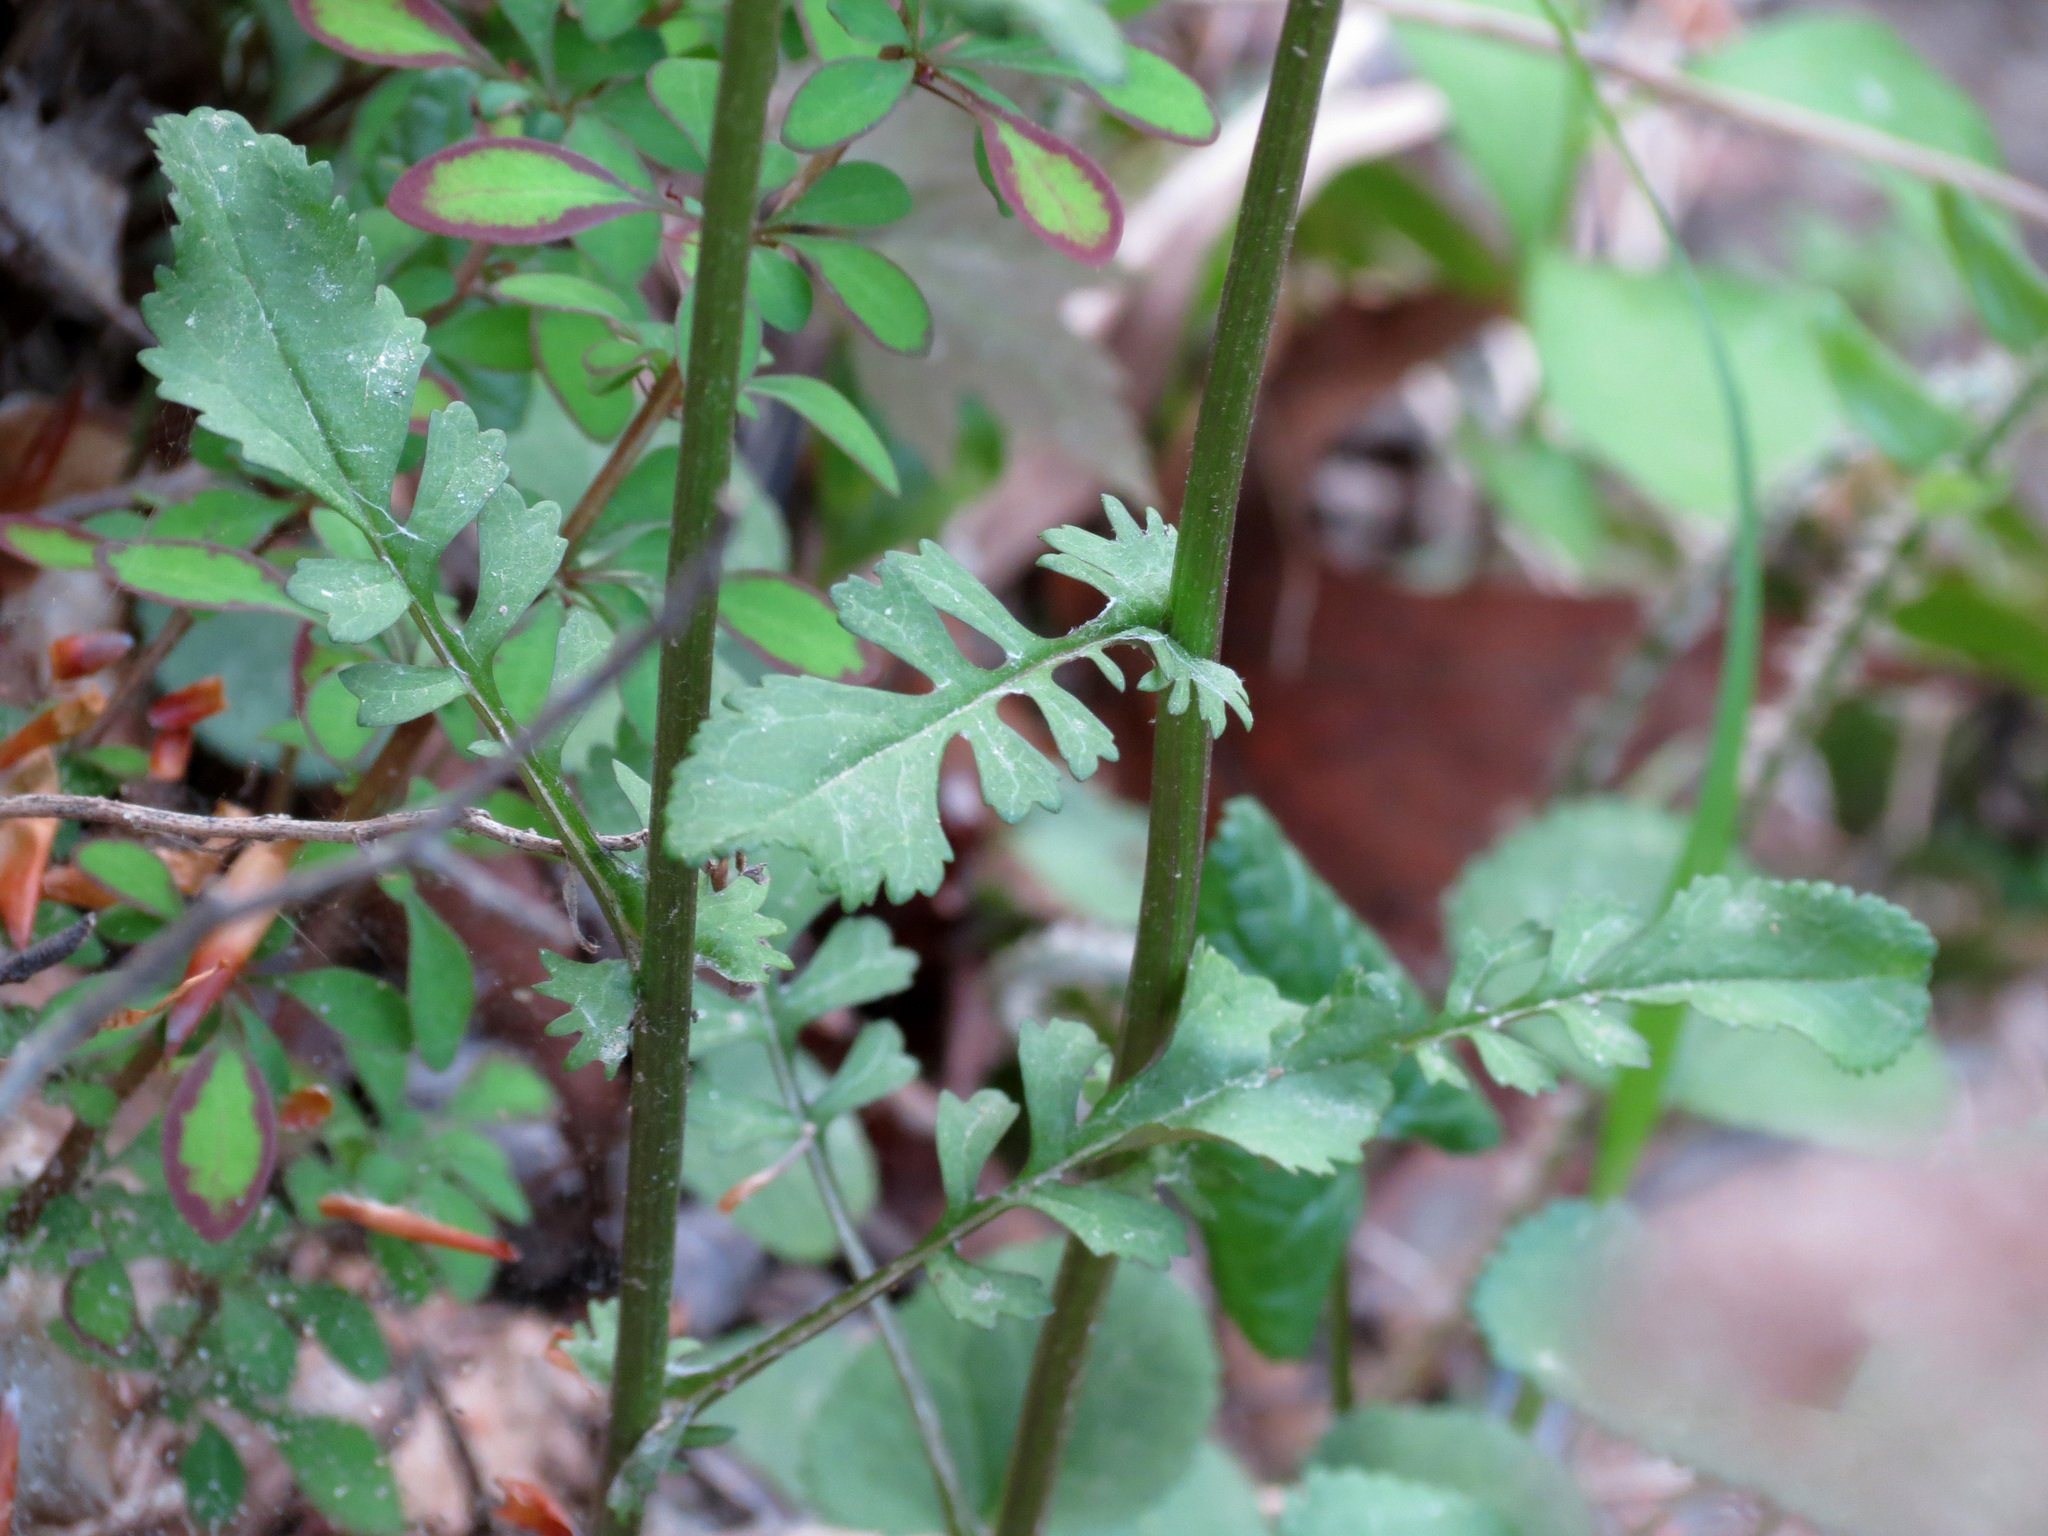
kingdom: Plantae
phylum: Tracheophyta
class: Magnoliopsida
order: Asterales
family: Asteraceae
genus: Packera
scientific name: Packera aurea
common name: Golden groundsel
